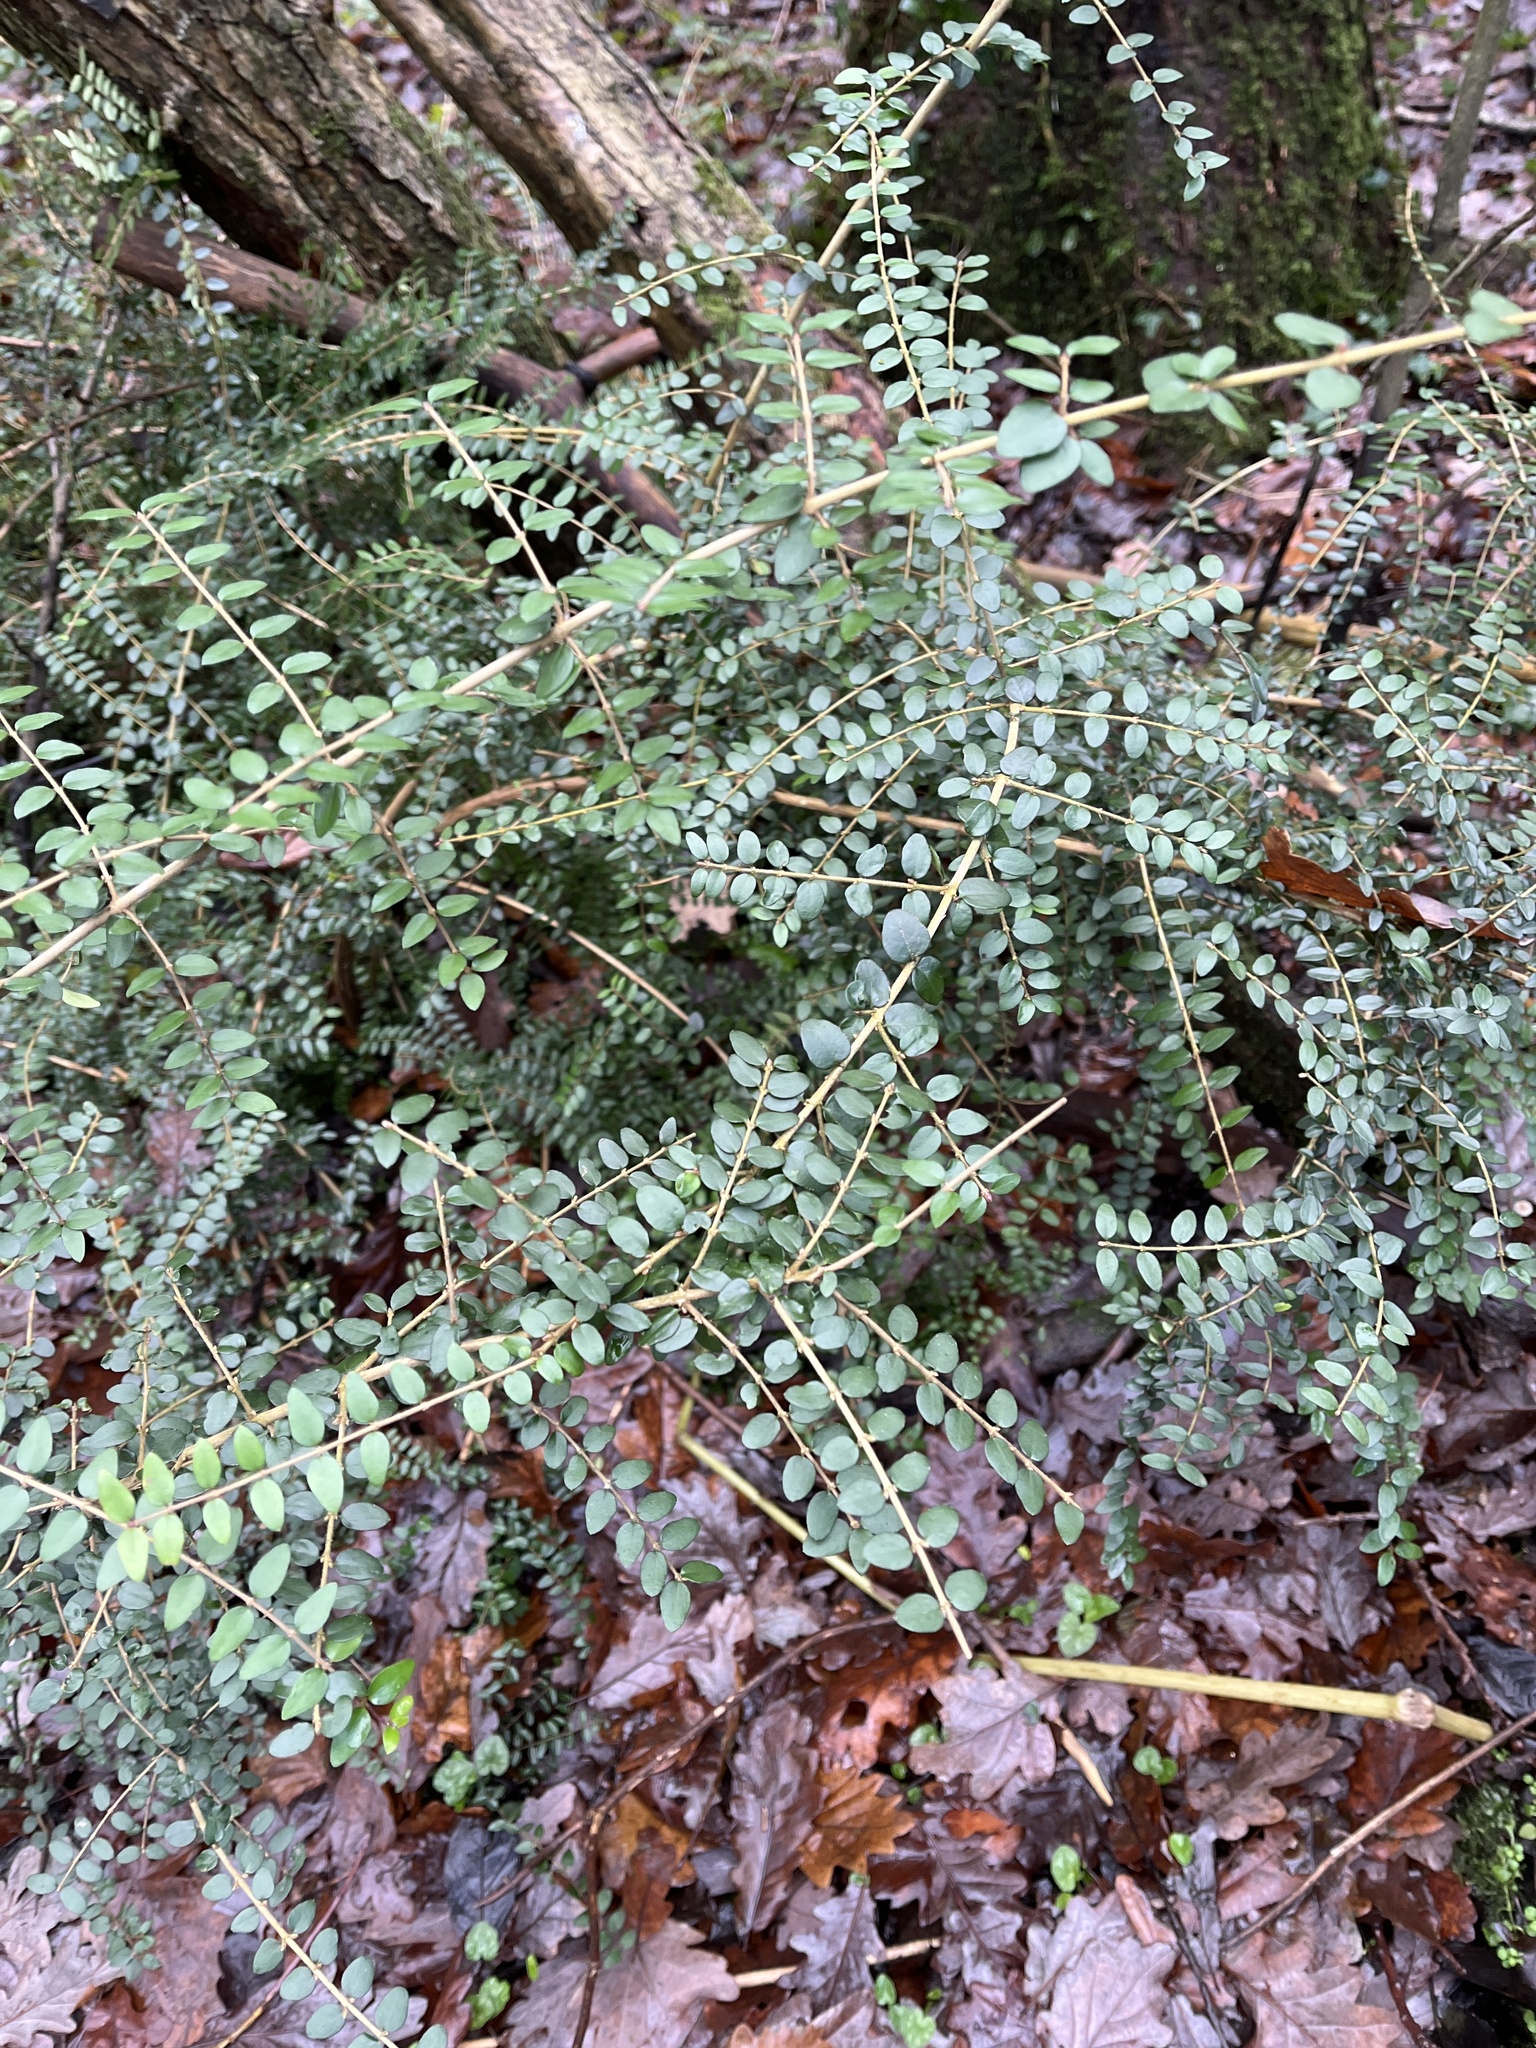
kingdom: Plantae
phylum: Tracheophyta
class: Magnoliopsida
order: Dipsacales
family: Caprifoliaceae
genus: Lonicera
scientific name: Lonicera ligustrina
